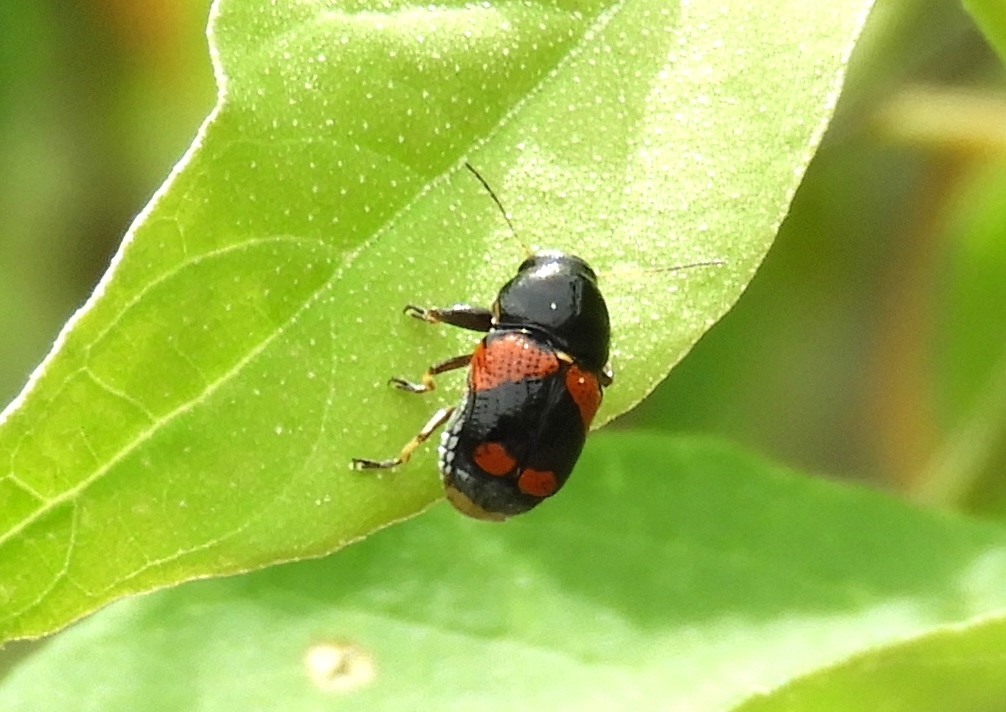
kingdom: Animalia
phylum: Arthropoda
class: Insecta
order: Coleoptera
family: Chrysomelidae
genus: Griburius
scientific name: Griburius albilabris
